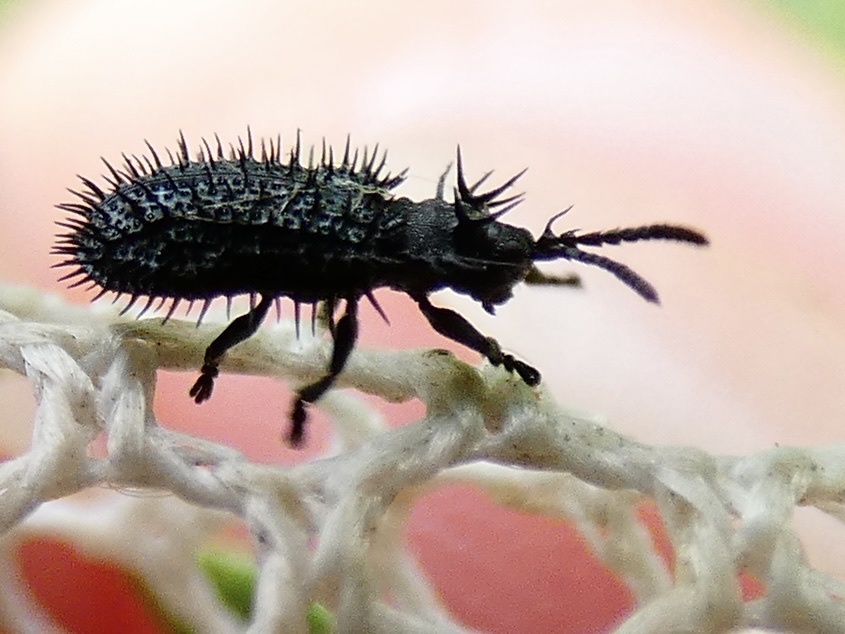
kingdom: Animalia
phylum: Arthropoda
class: Insecta
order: Coleoptera
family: Chrysomelidae
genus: Hispa
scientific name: Hispa atra
